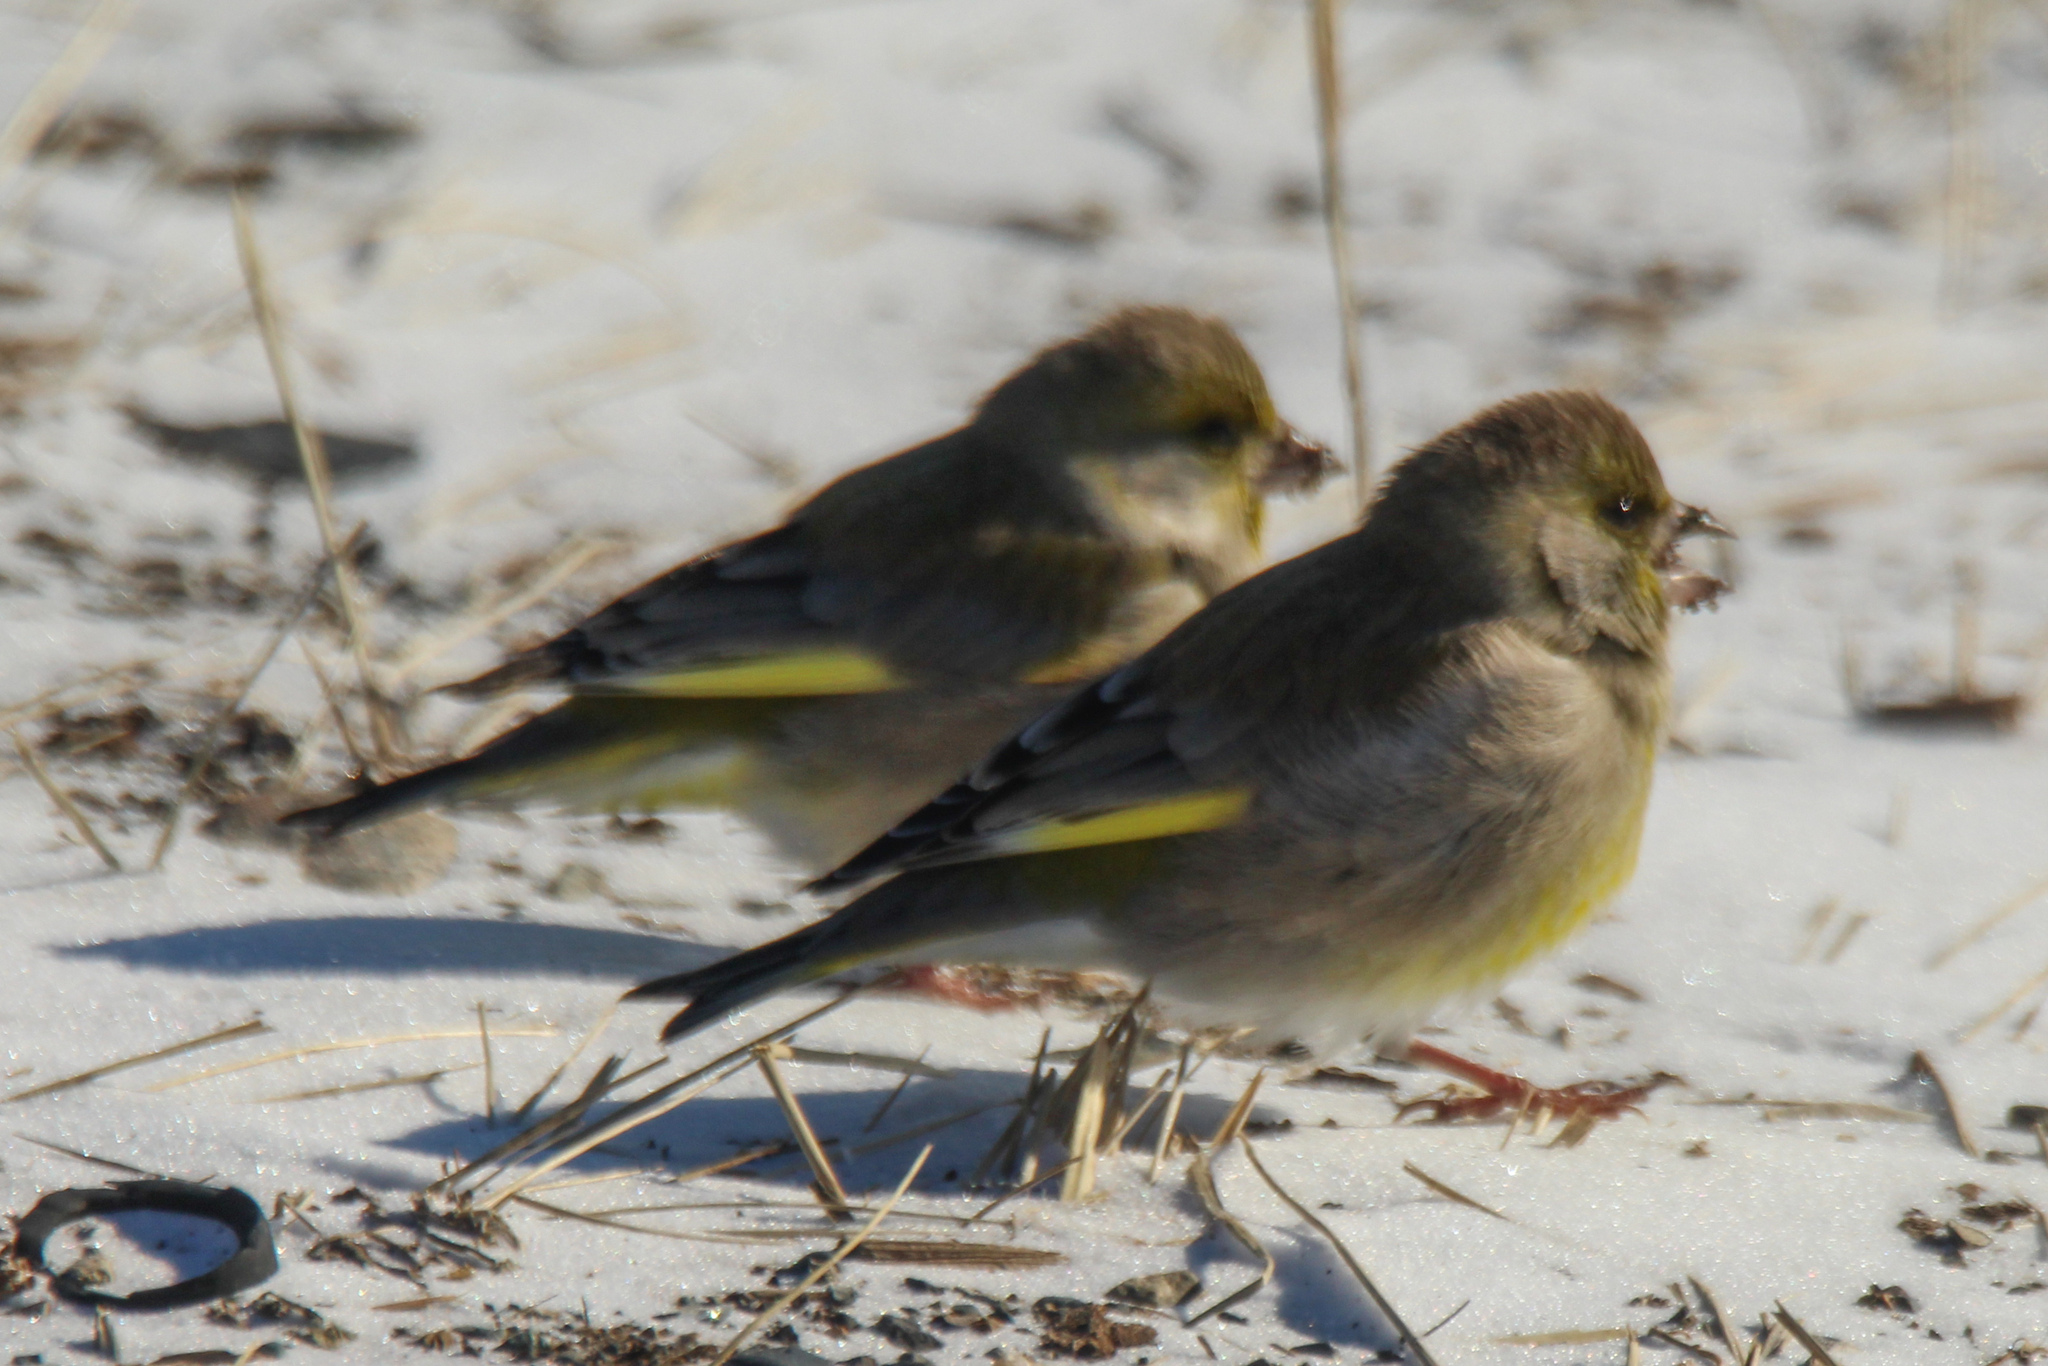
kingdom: Plantae
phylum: Tracheophyta
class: Liliopsida
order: Poales
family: Poaceae
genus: Chloris
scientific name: Chloris chloris
